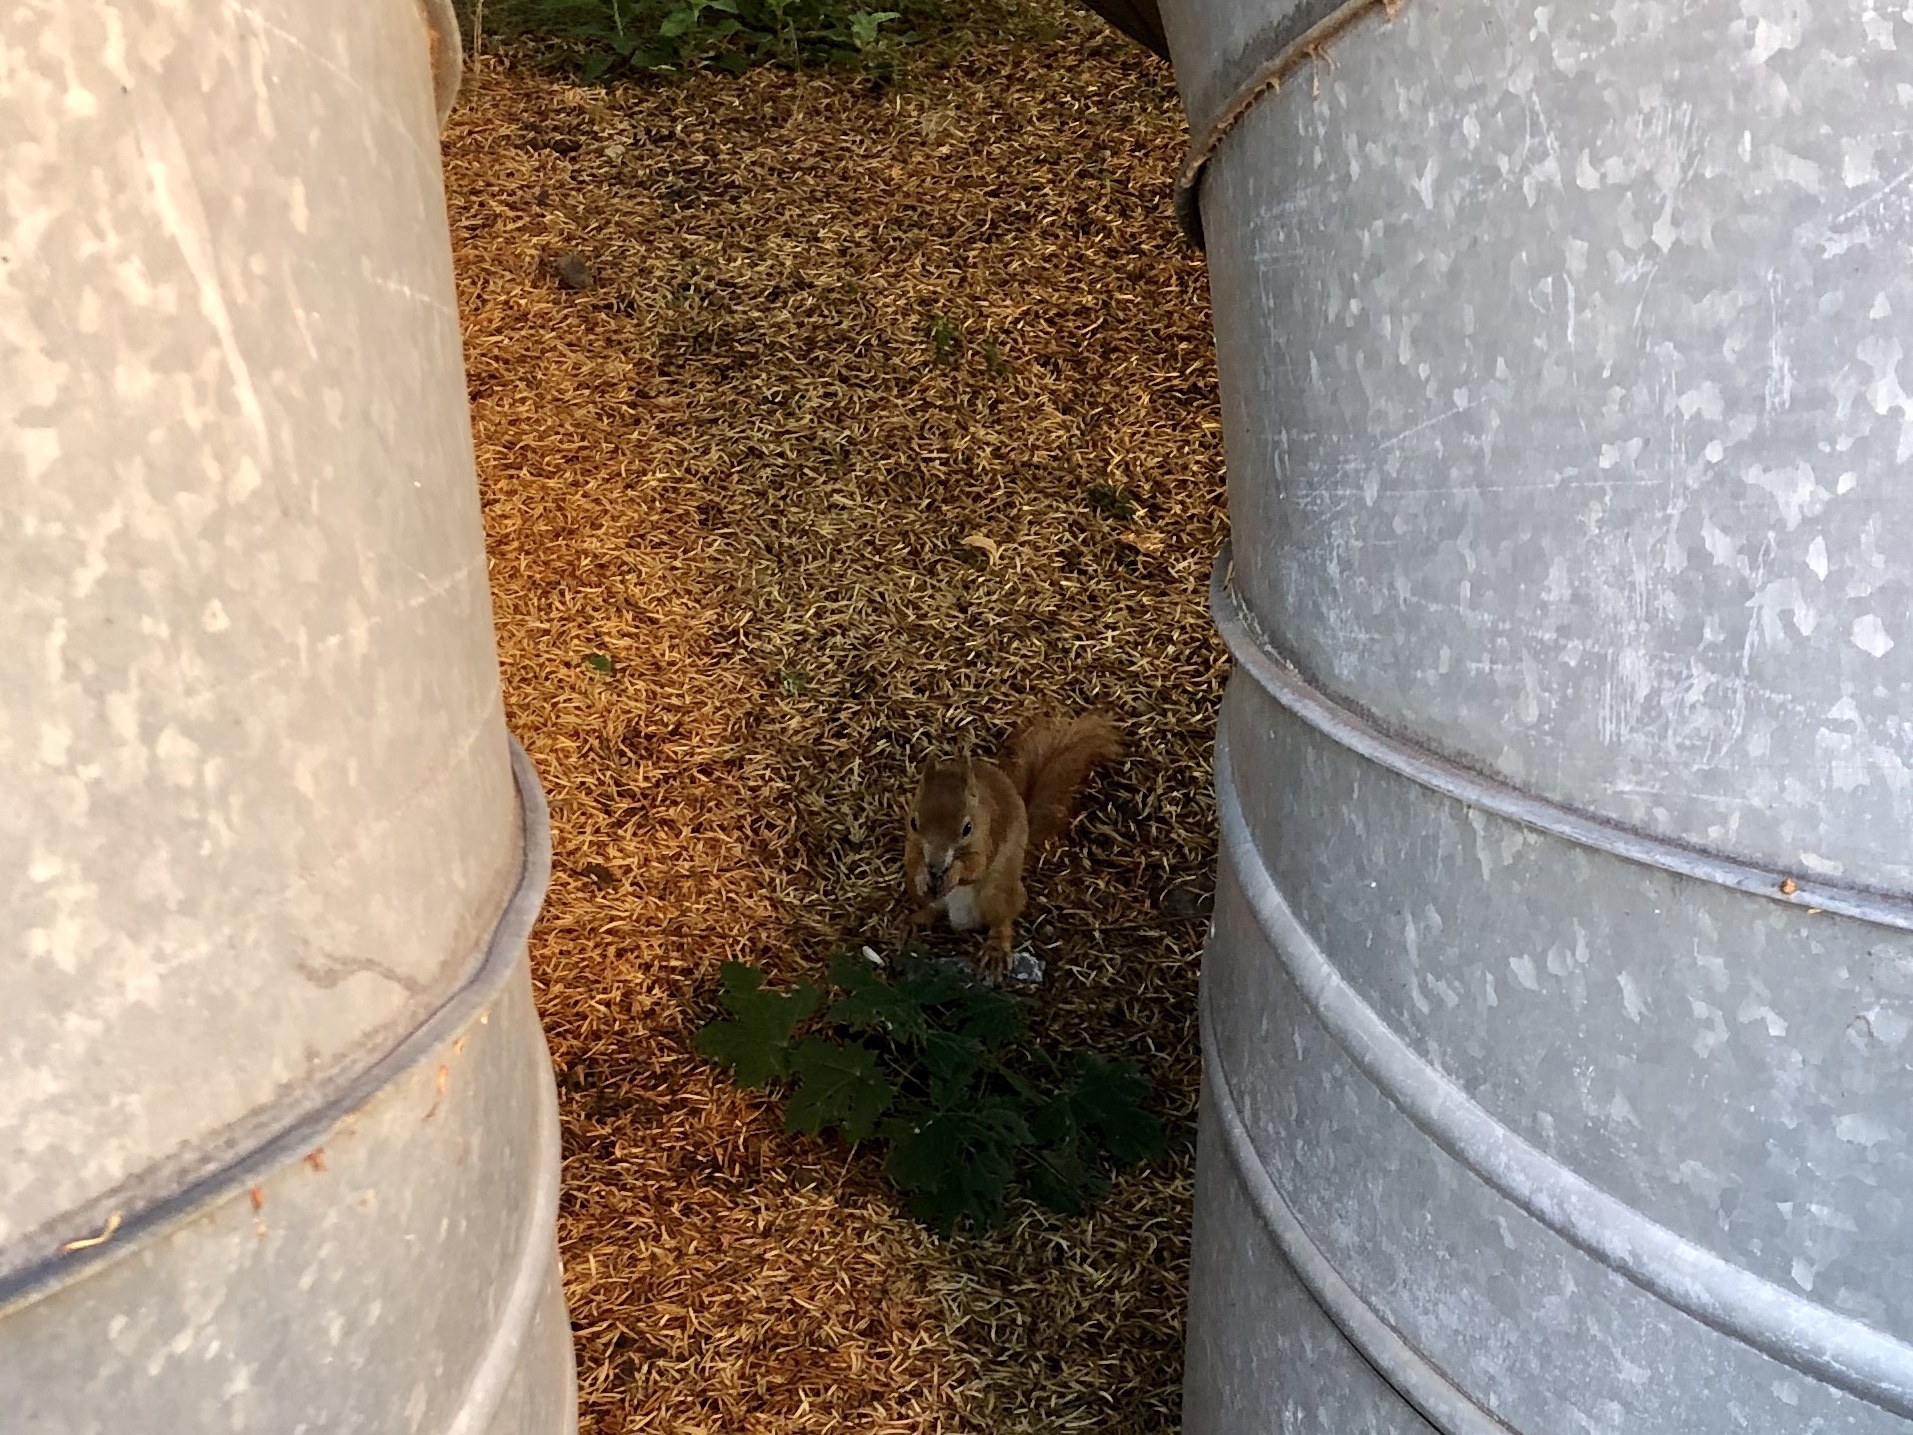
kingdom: Animalia
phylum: Chordata
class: Mammalia
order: Rodentia
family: Sciuridae
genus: Sciurus
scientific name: Sciurus vulgaris
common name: Eurasian red squirrel
